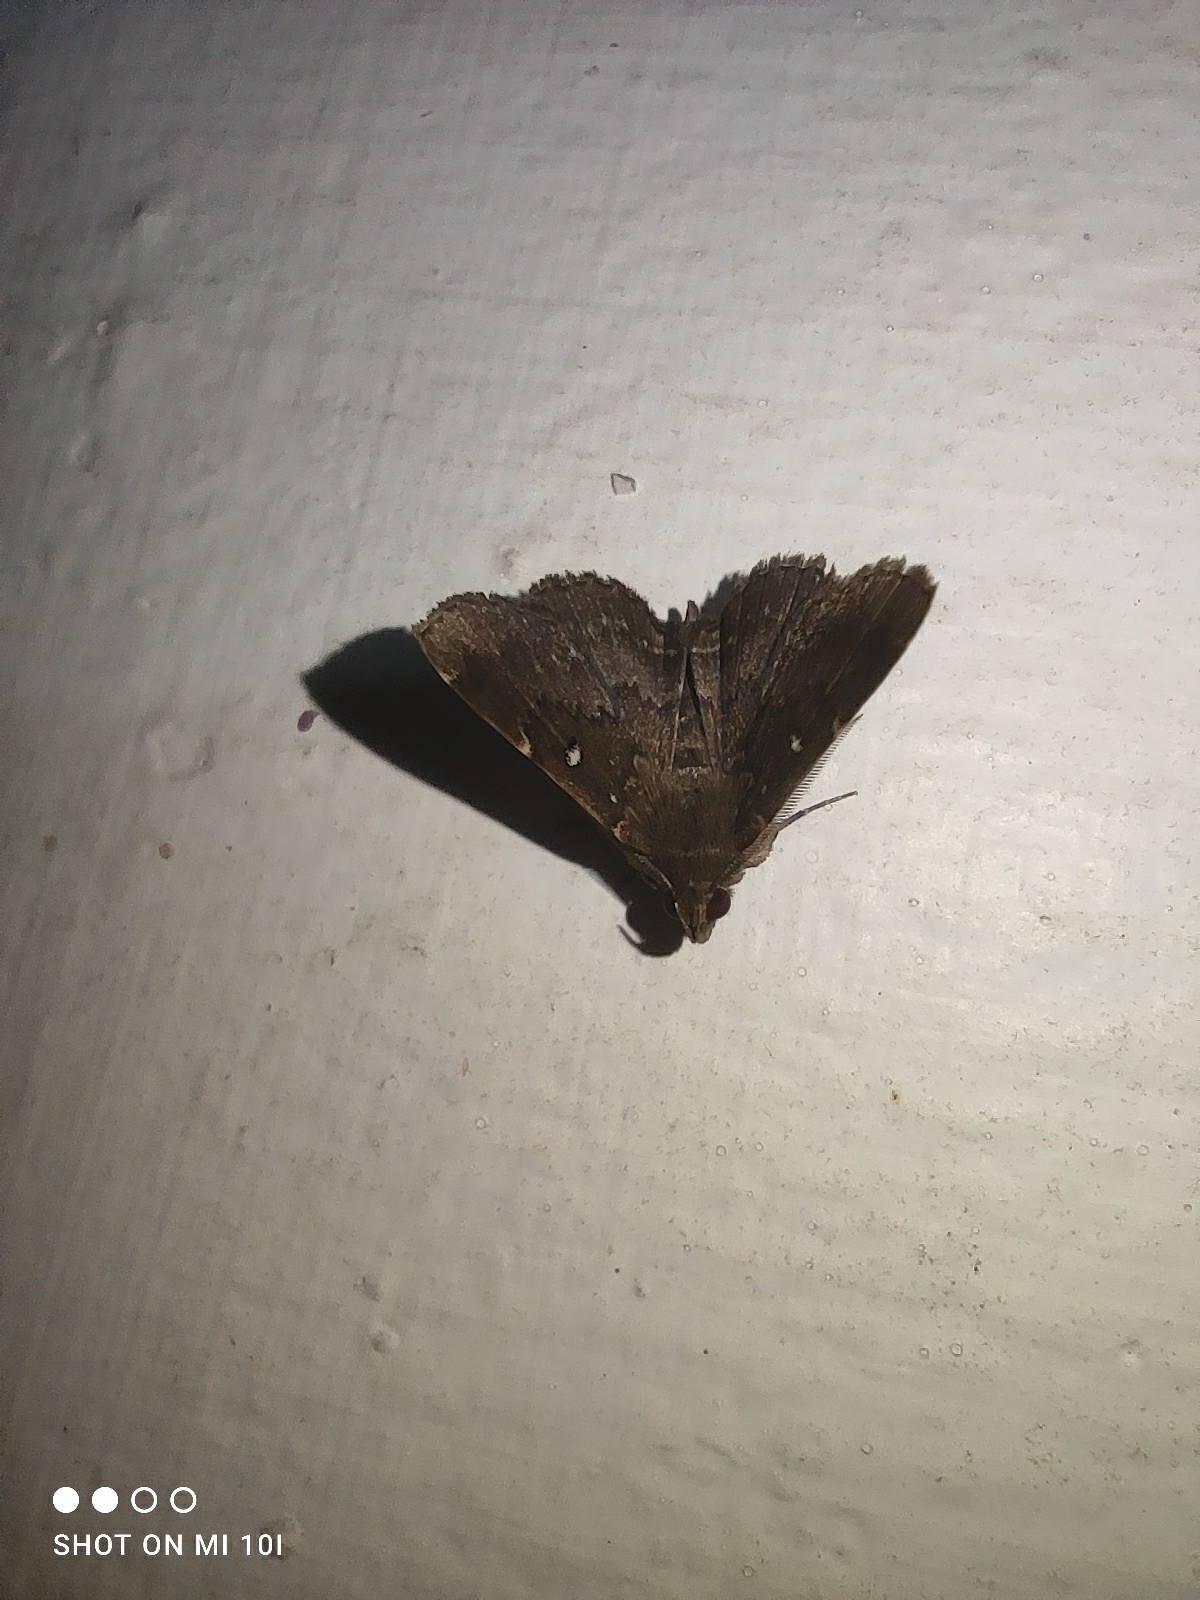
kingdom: Animalia
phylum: Arthropoda
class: Insecta
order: Lepidoptera
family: Erebidae
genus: Bocana
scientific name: Bocana manifestalis
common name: Moth
